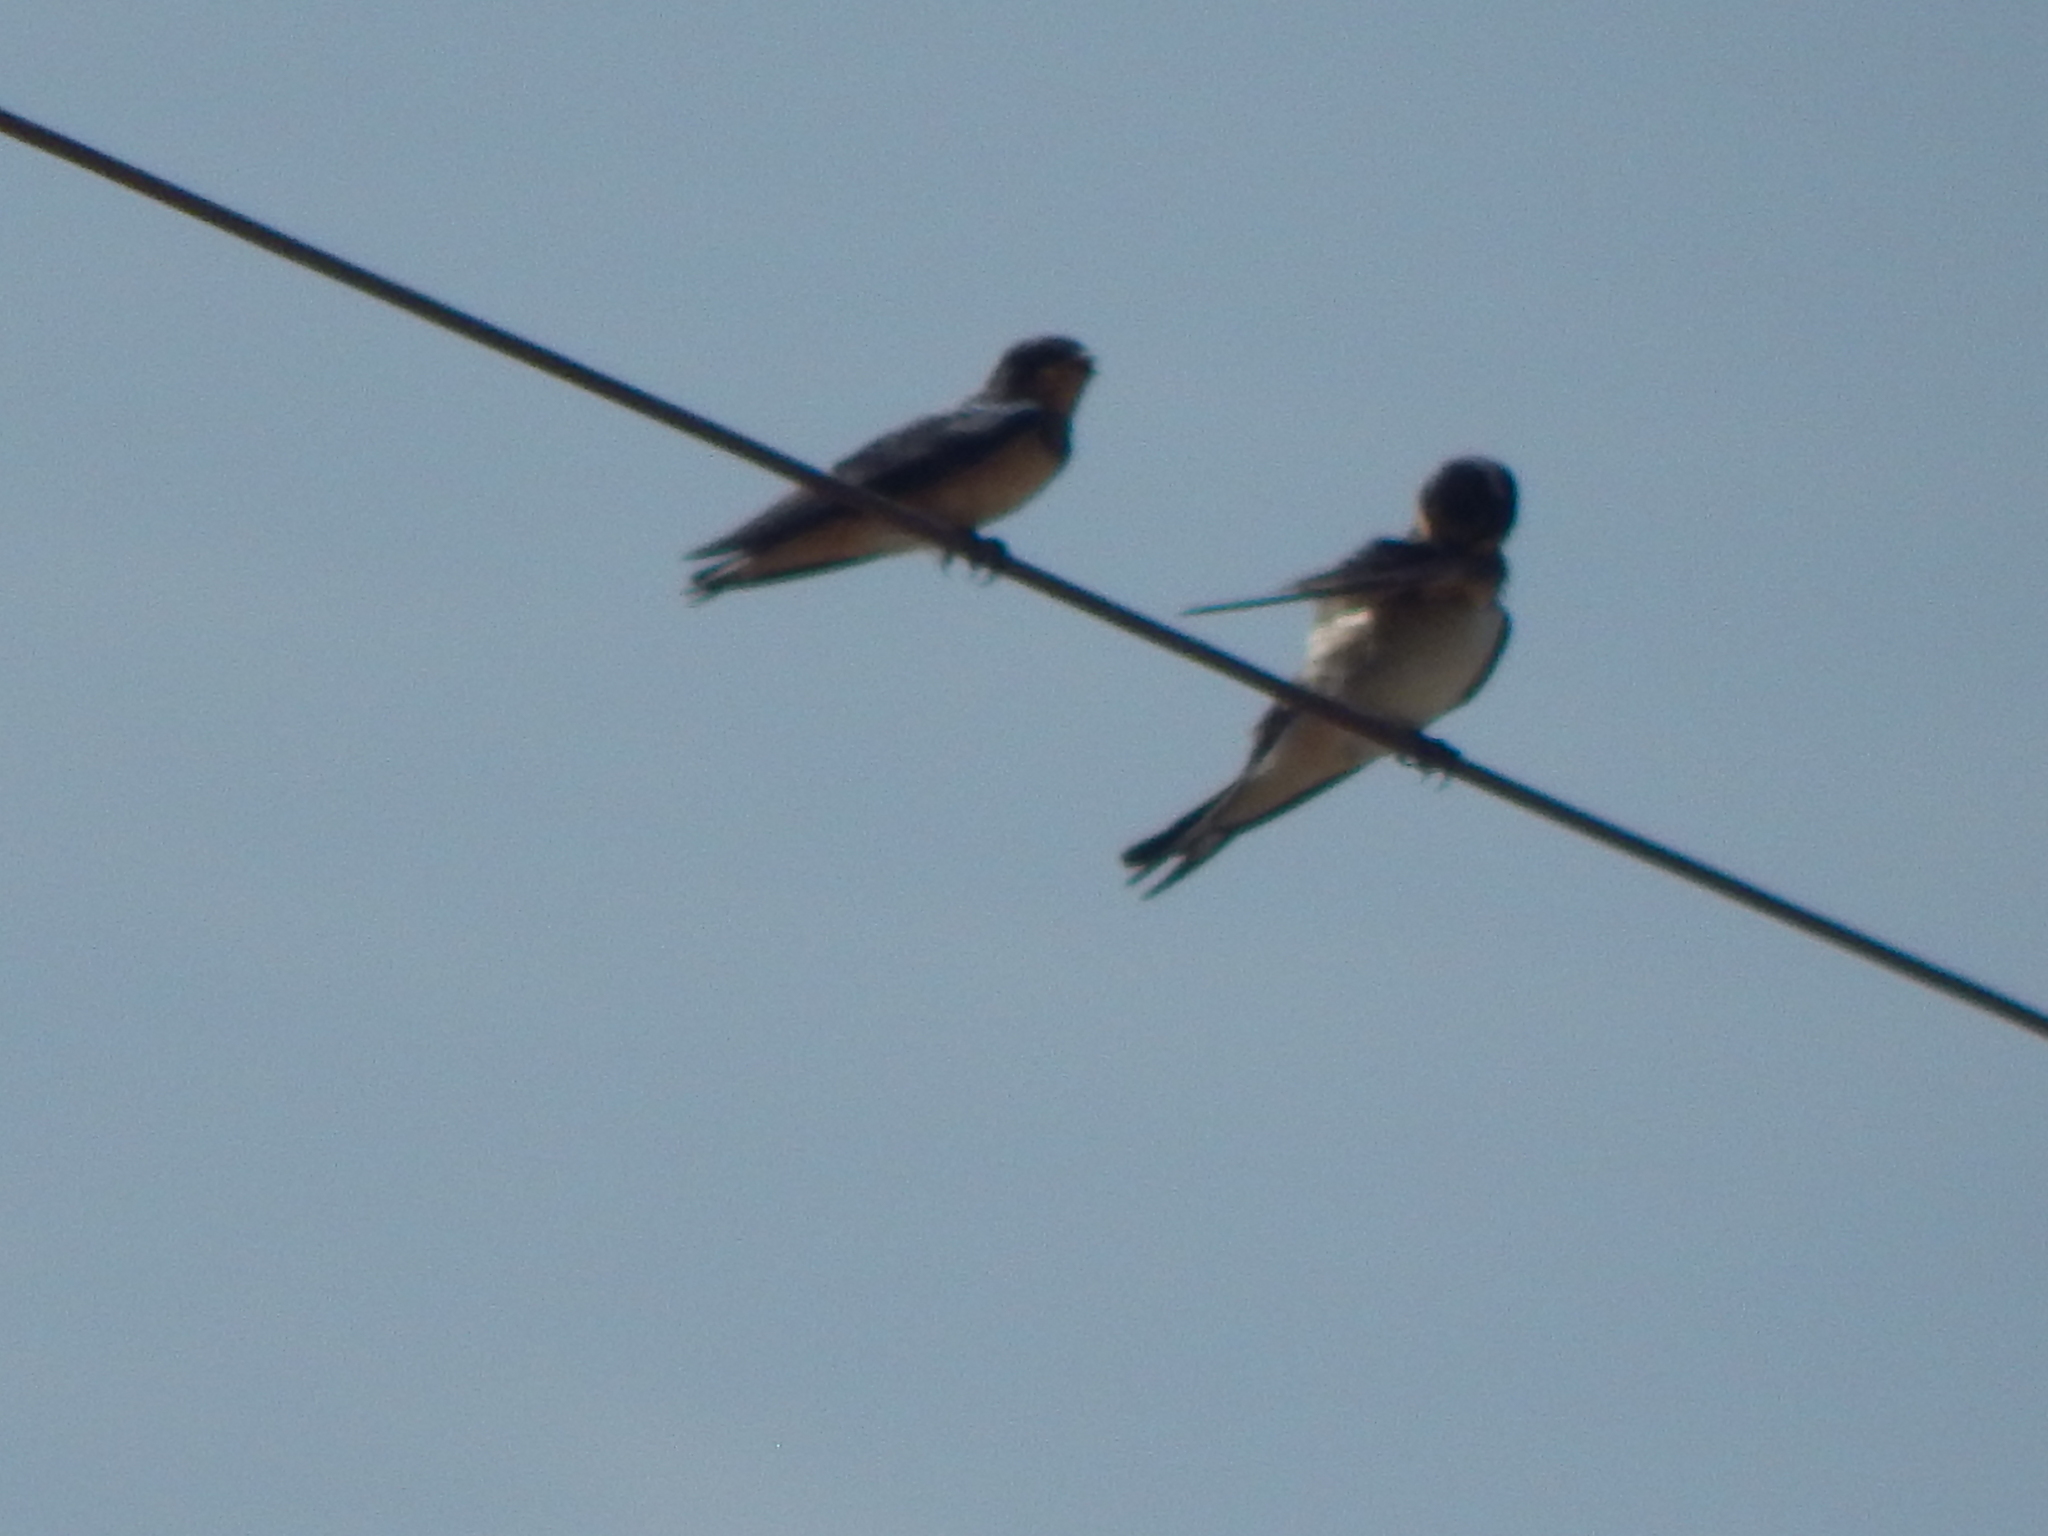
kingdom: Animalia
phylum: Chordata
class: Aves
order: Passeriformes
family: Hirundinidae
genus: Hirundo
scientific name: Hirundo rustica
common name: Barn swallow
